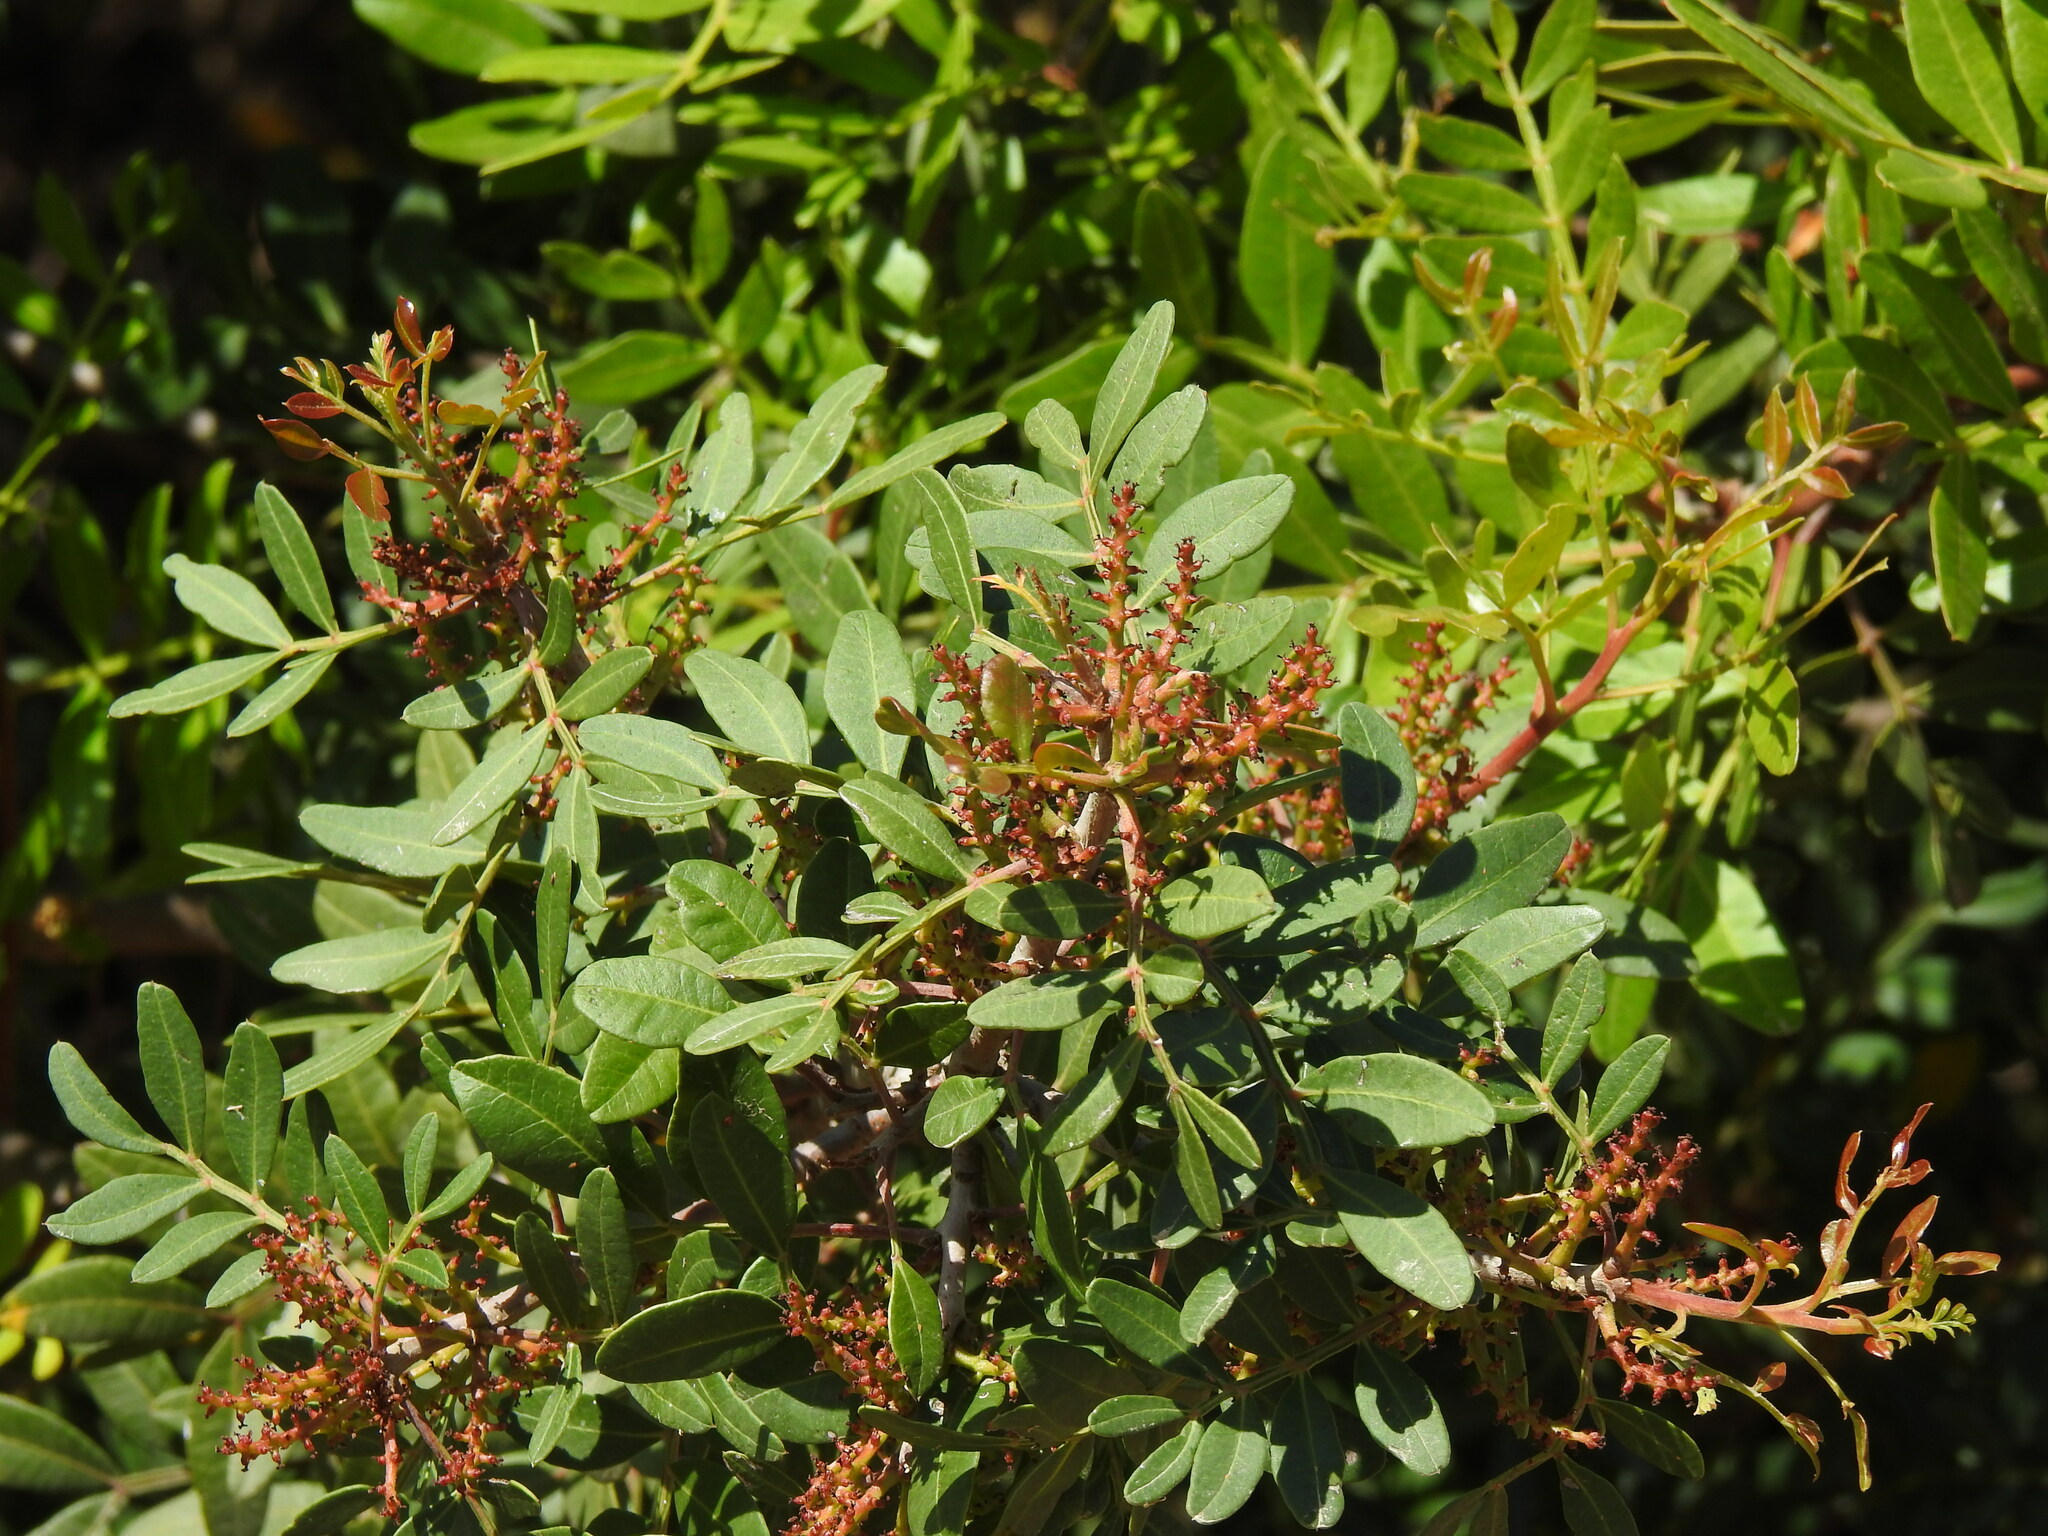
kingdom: Plantae
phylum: Tracheophyta
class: Magnoliopsida
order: Sapindales
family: Anacardiaceae
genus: Pistacia
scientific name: Pistacia lentiscus
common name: Lentisk
